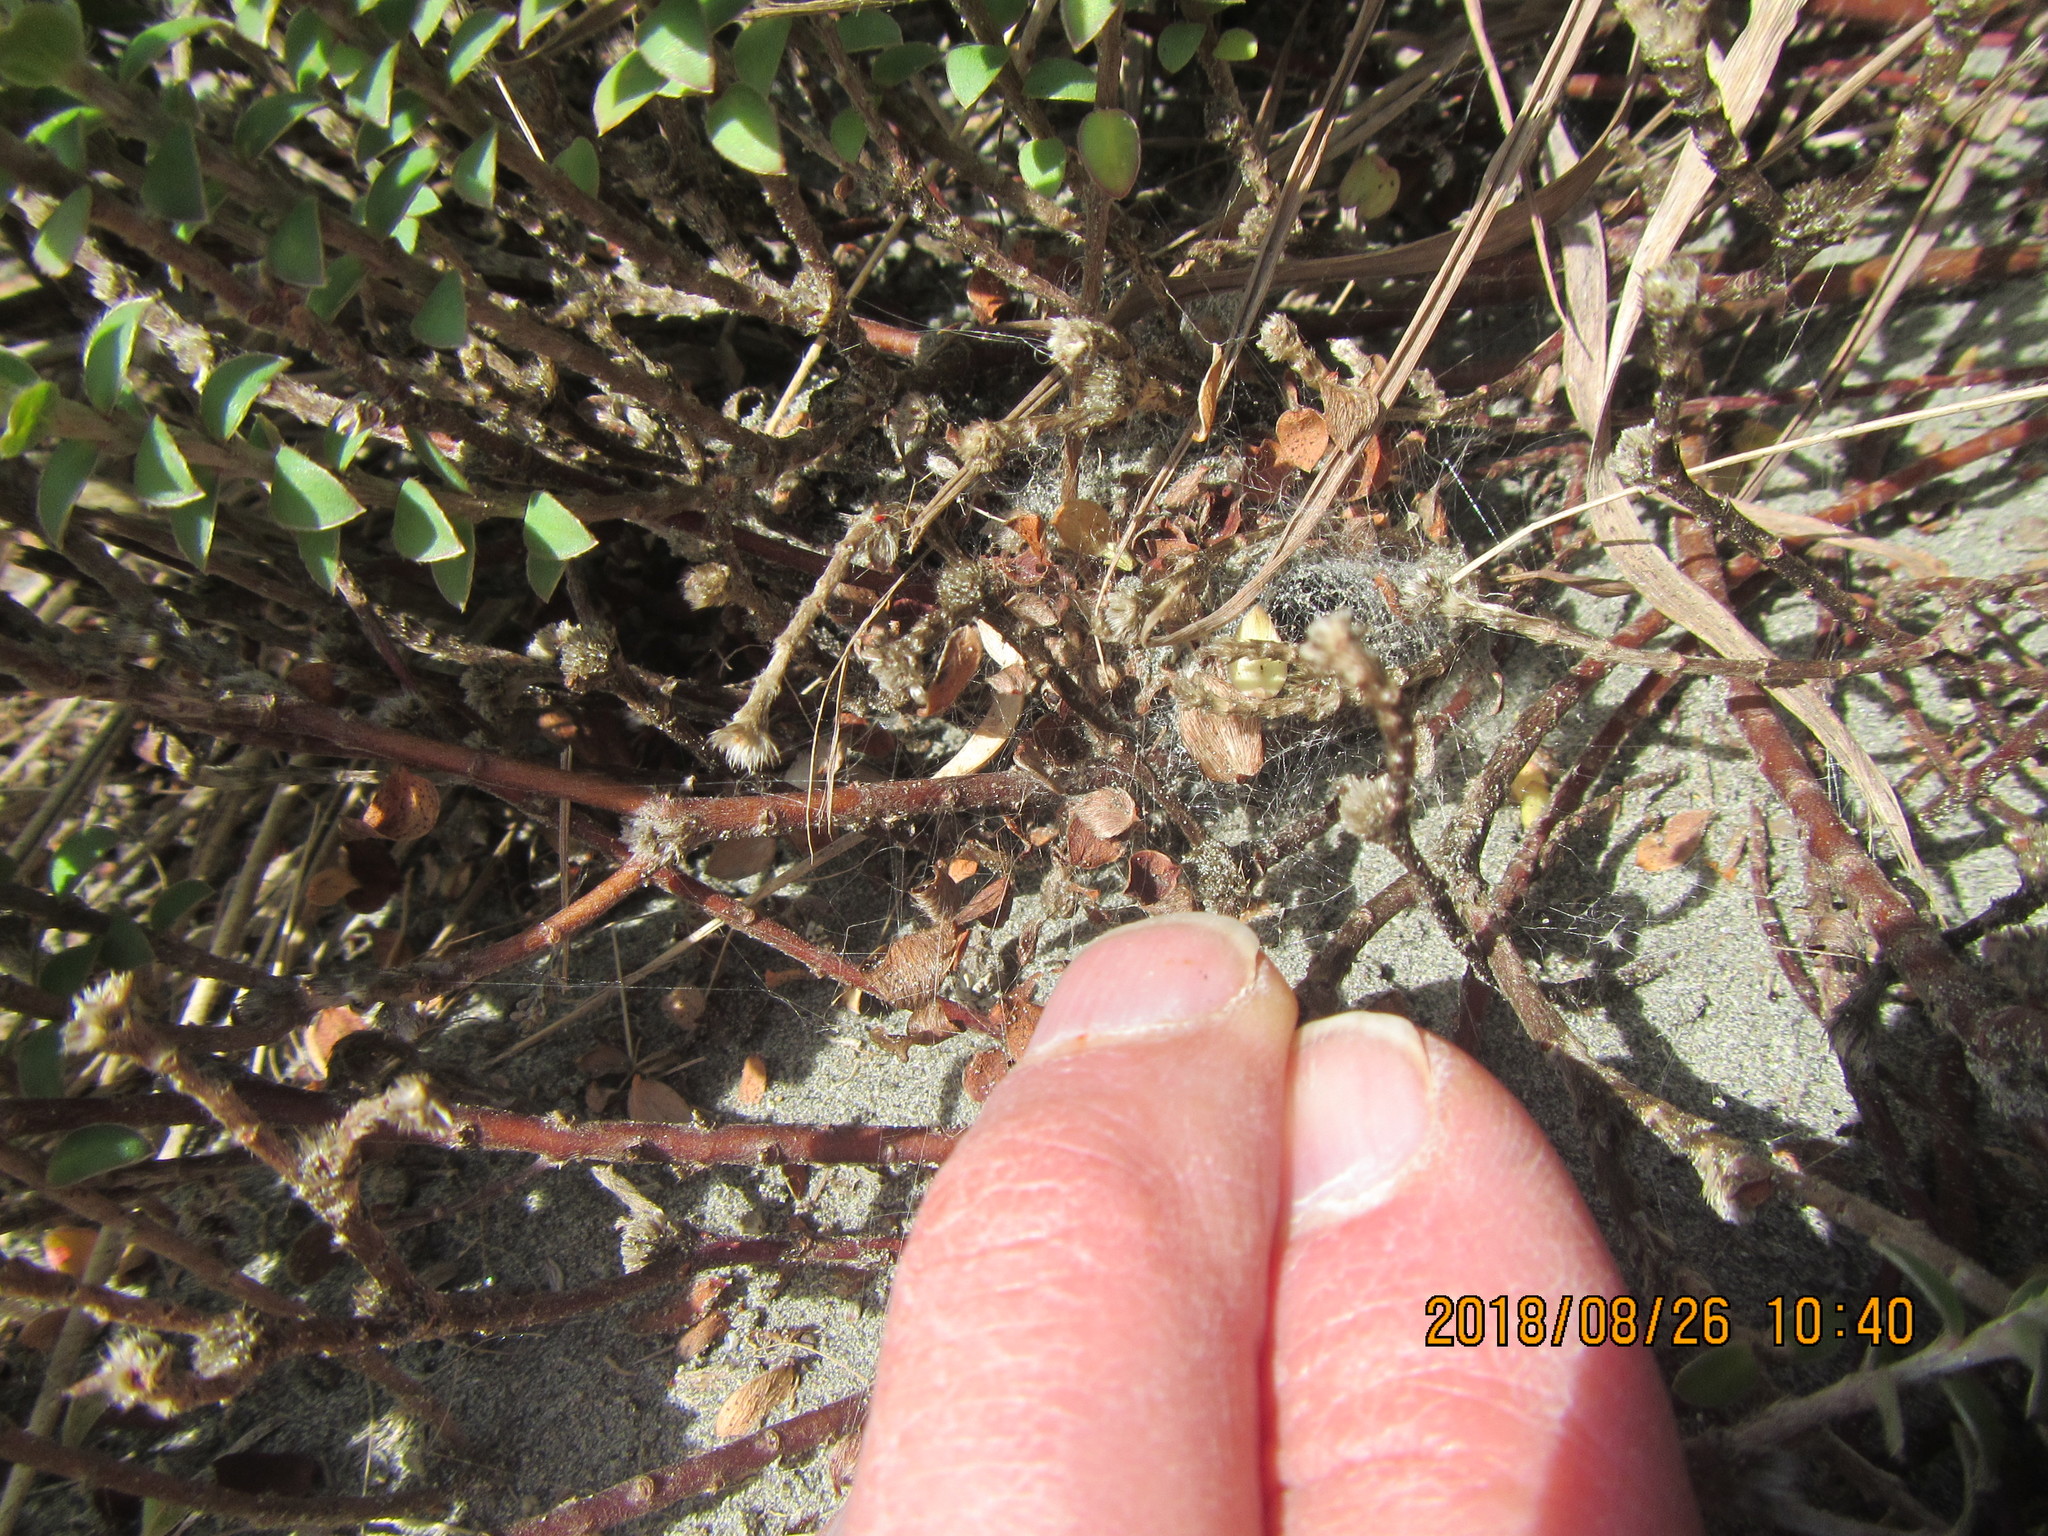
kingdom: Plantae
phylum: Tracheophyta
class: Magnoliopsida
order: Malvales
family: Thymelaeaceae
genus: Pimelea
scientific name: Pimelea villosa
